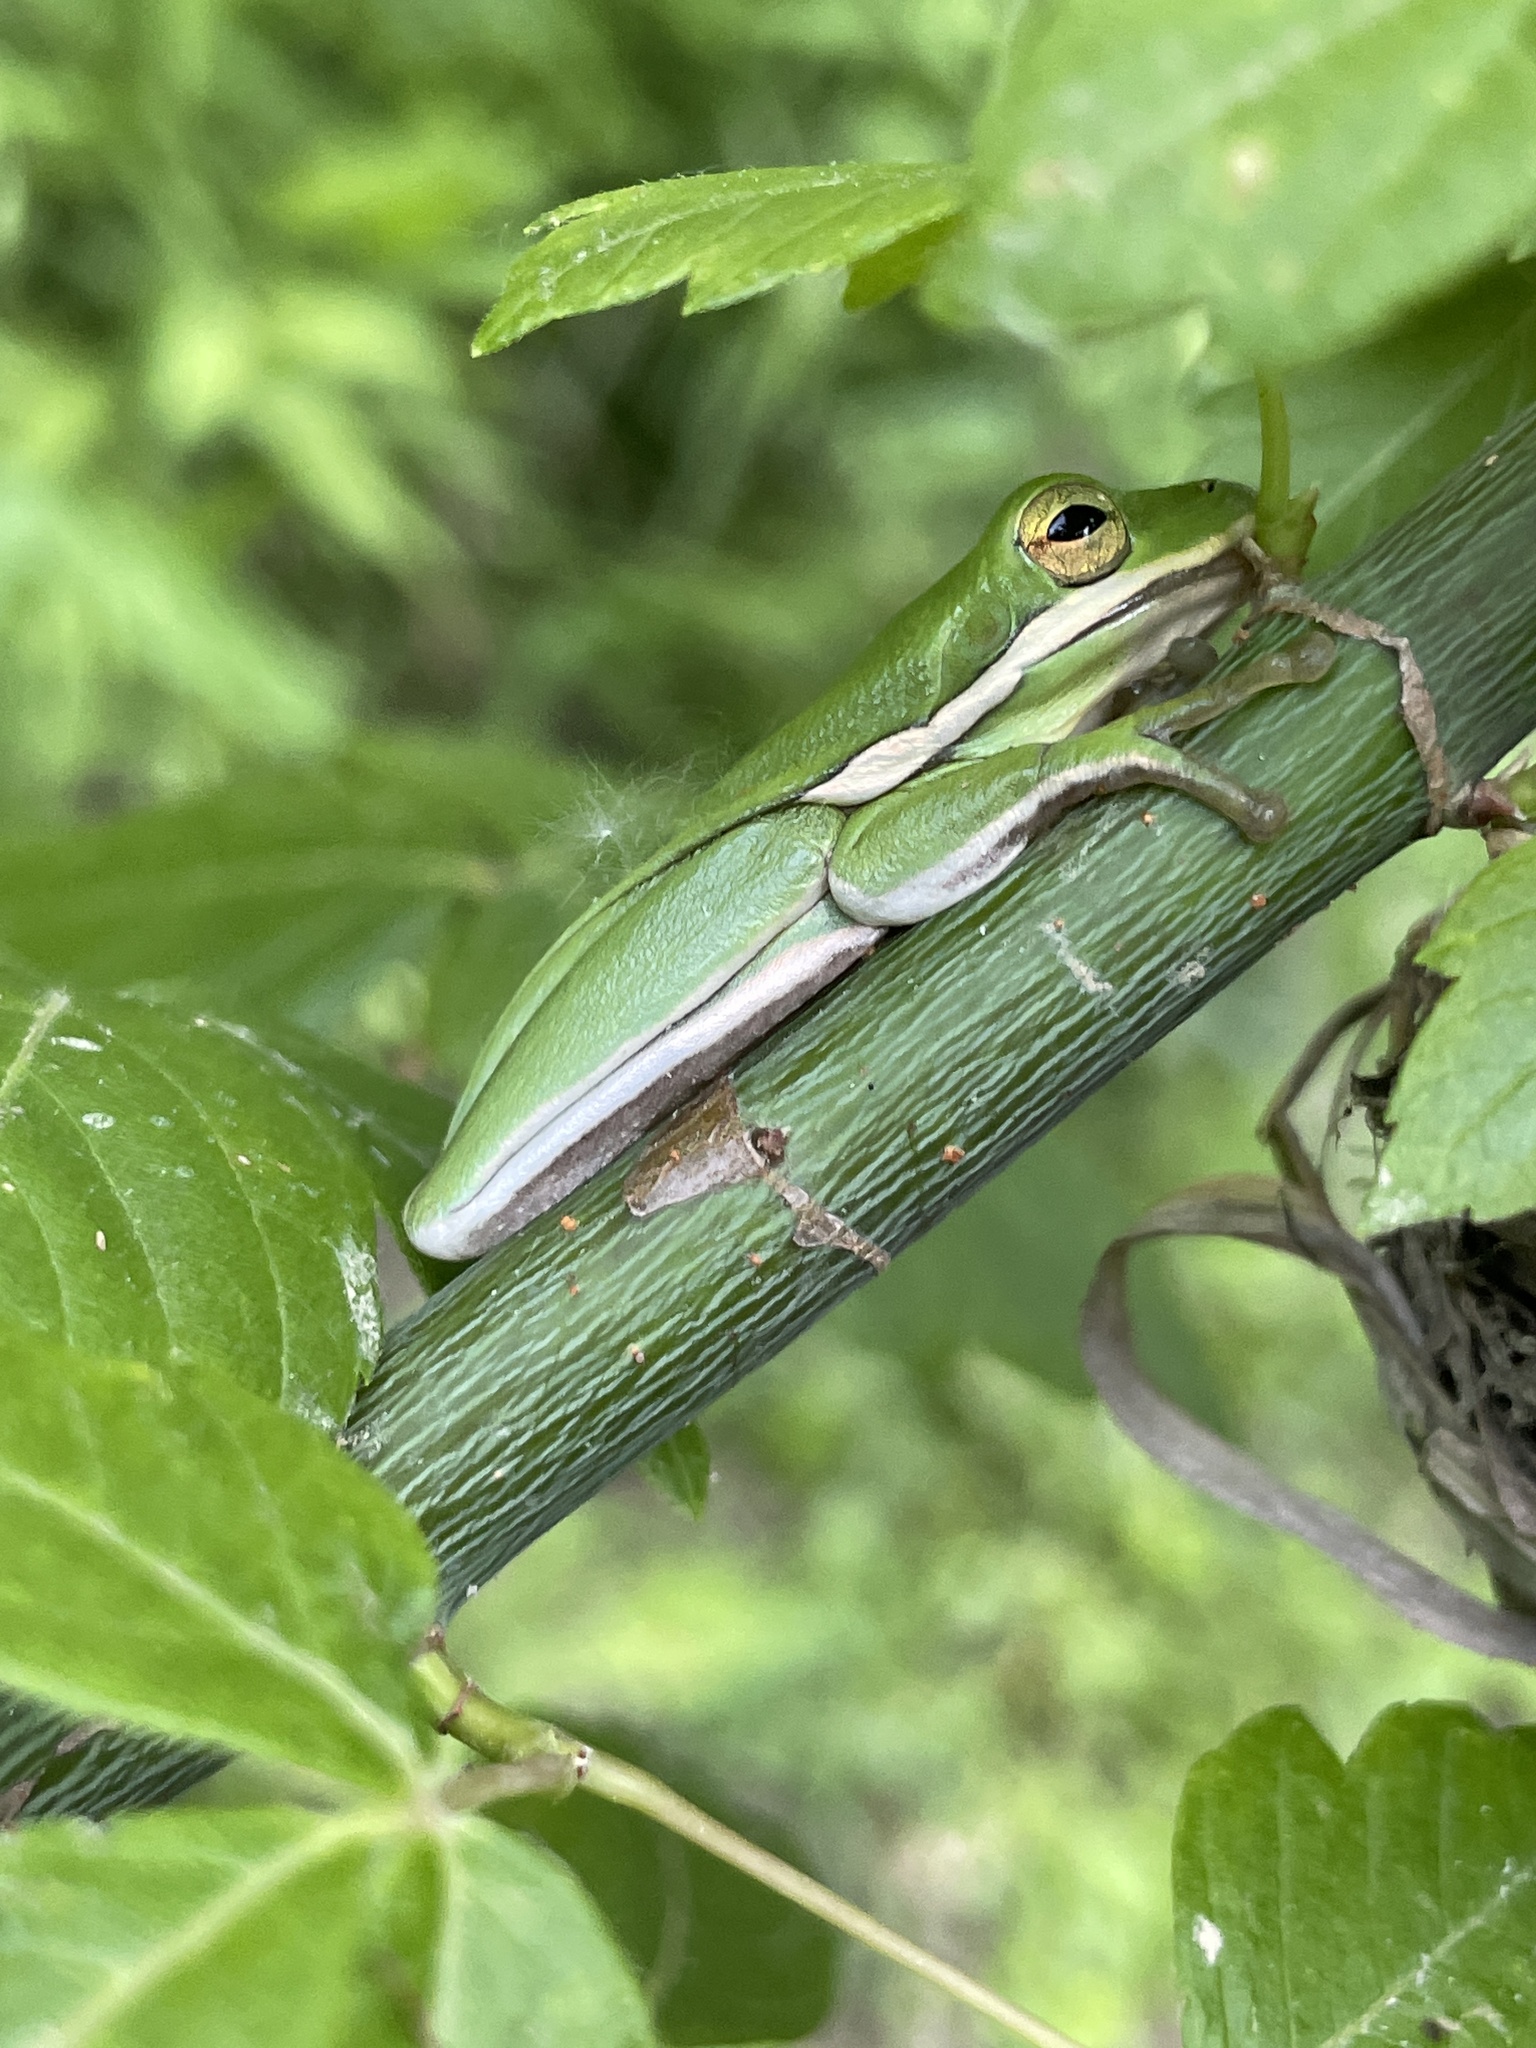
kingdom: Animalia
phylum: Chordata
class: Amphibia
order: Anura
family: Hylidae
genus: Dryophytes
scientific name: Dryophytes cinereus
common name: Green treefrog
